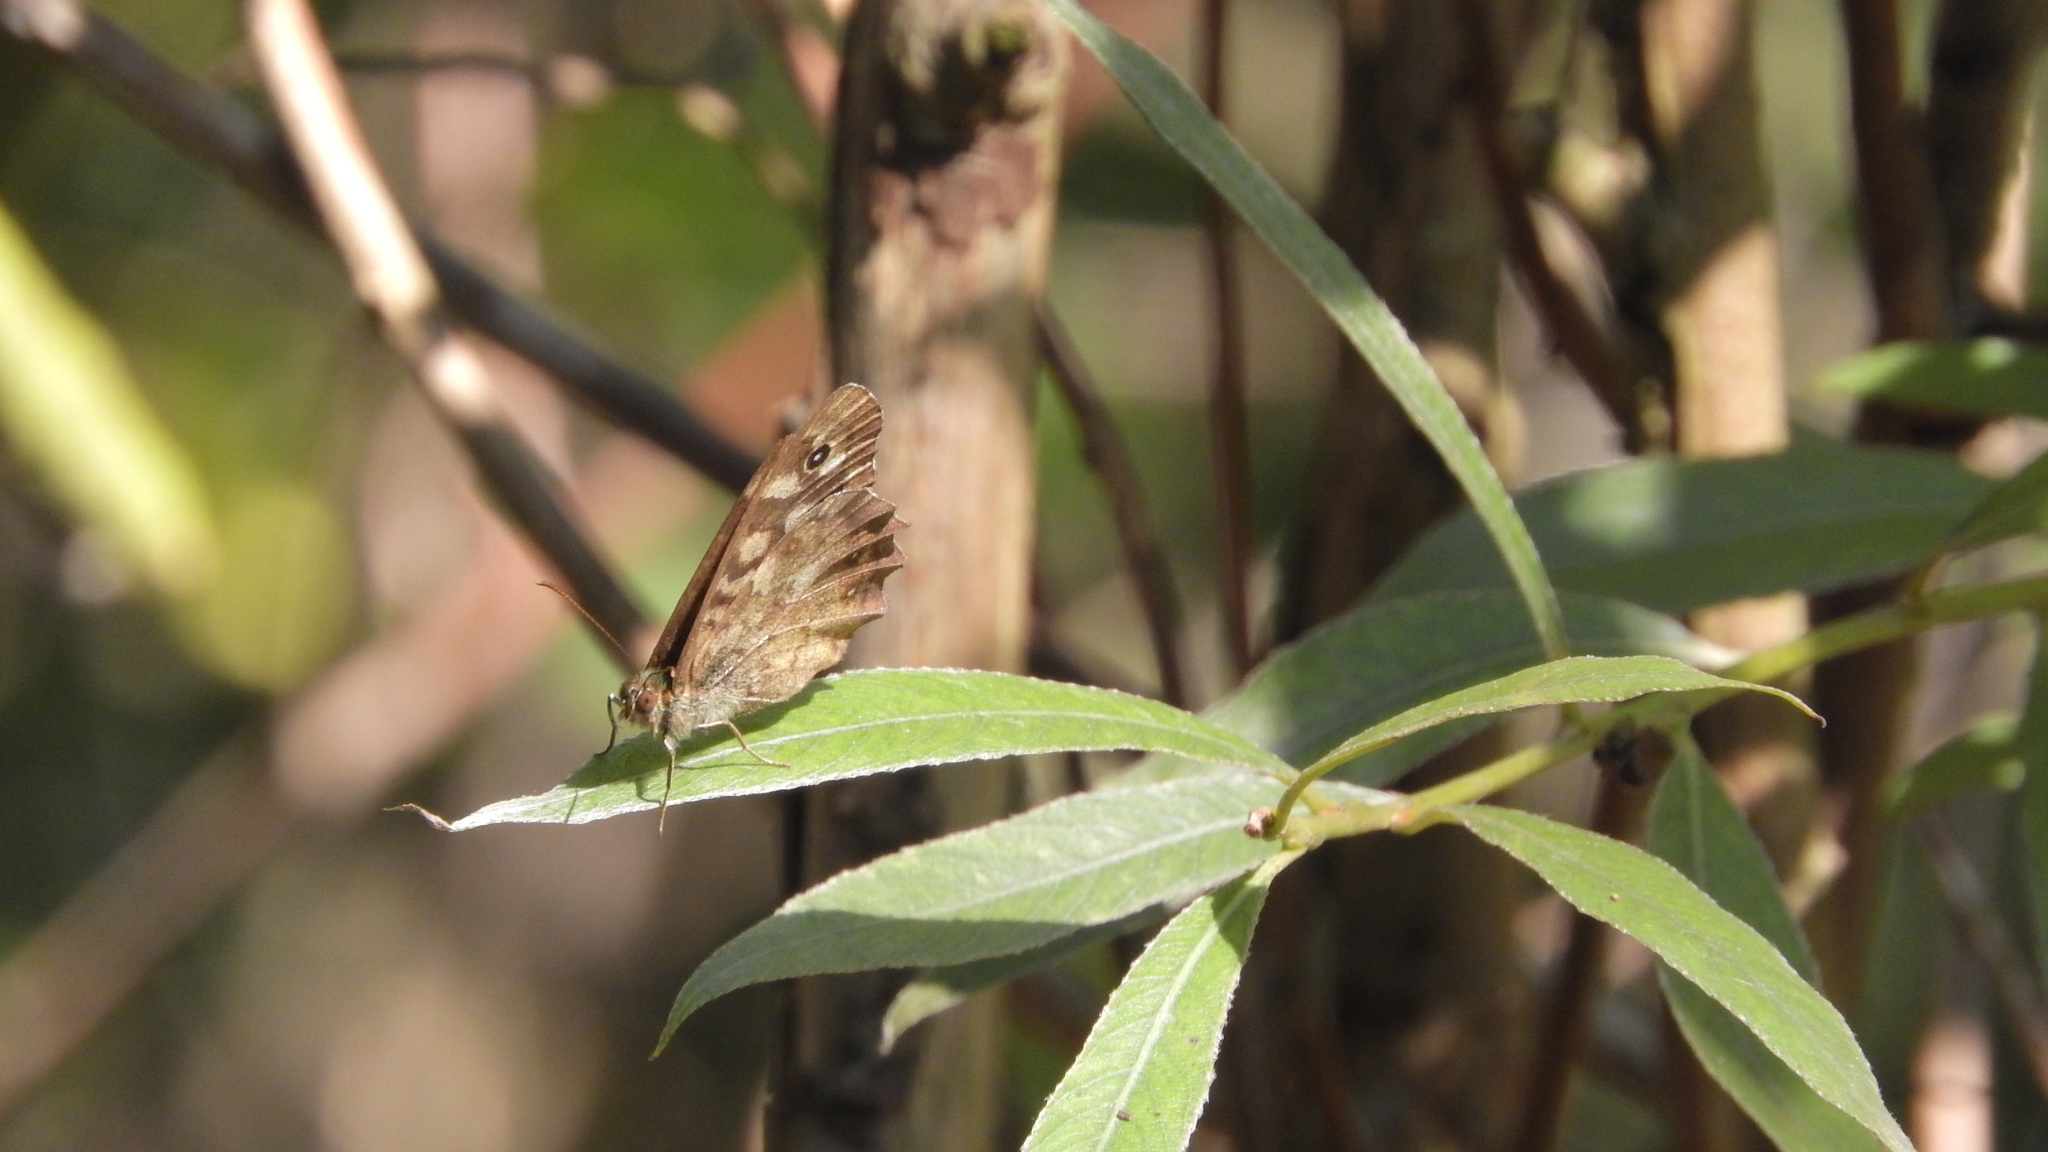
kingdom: Animalia
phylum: Arthropoda
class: Insecta
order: Lepidoptera
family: Nymphalidae
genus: Pararge
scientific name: Pararge aegeria
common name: Speckled wood
